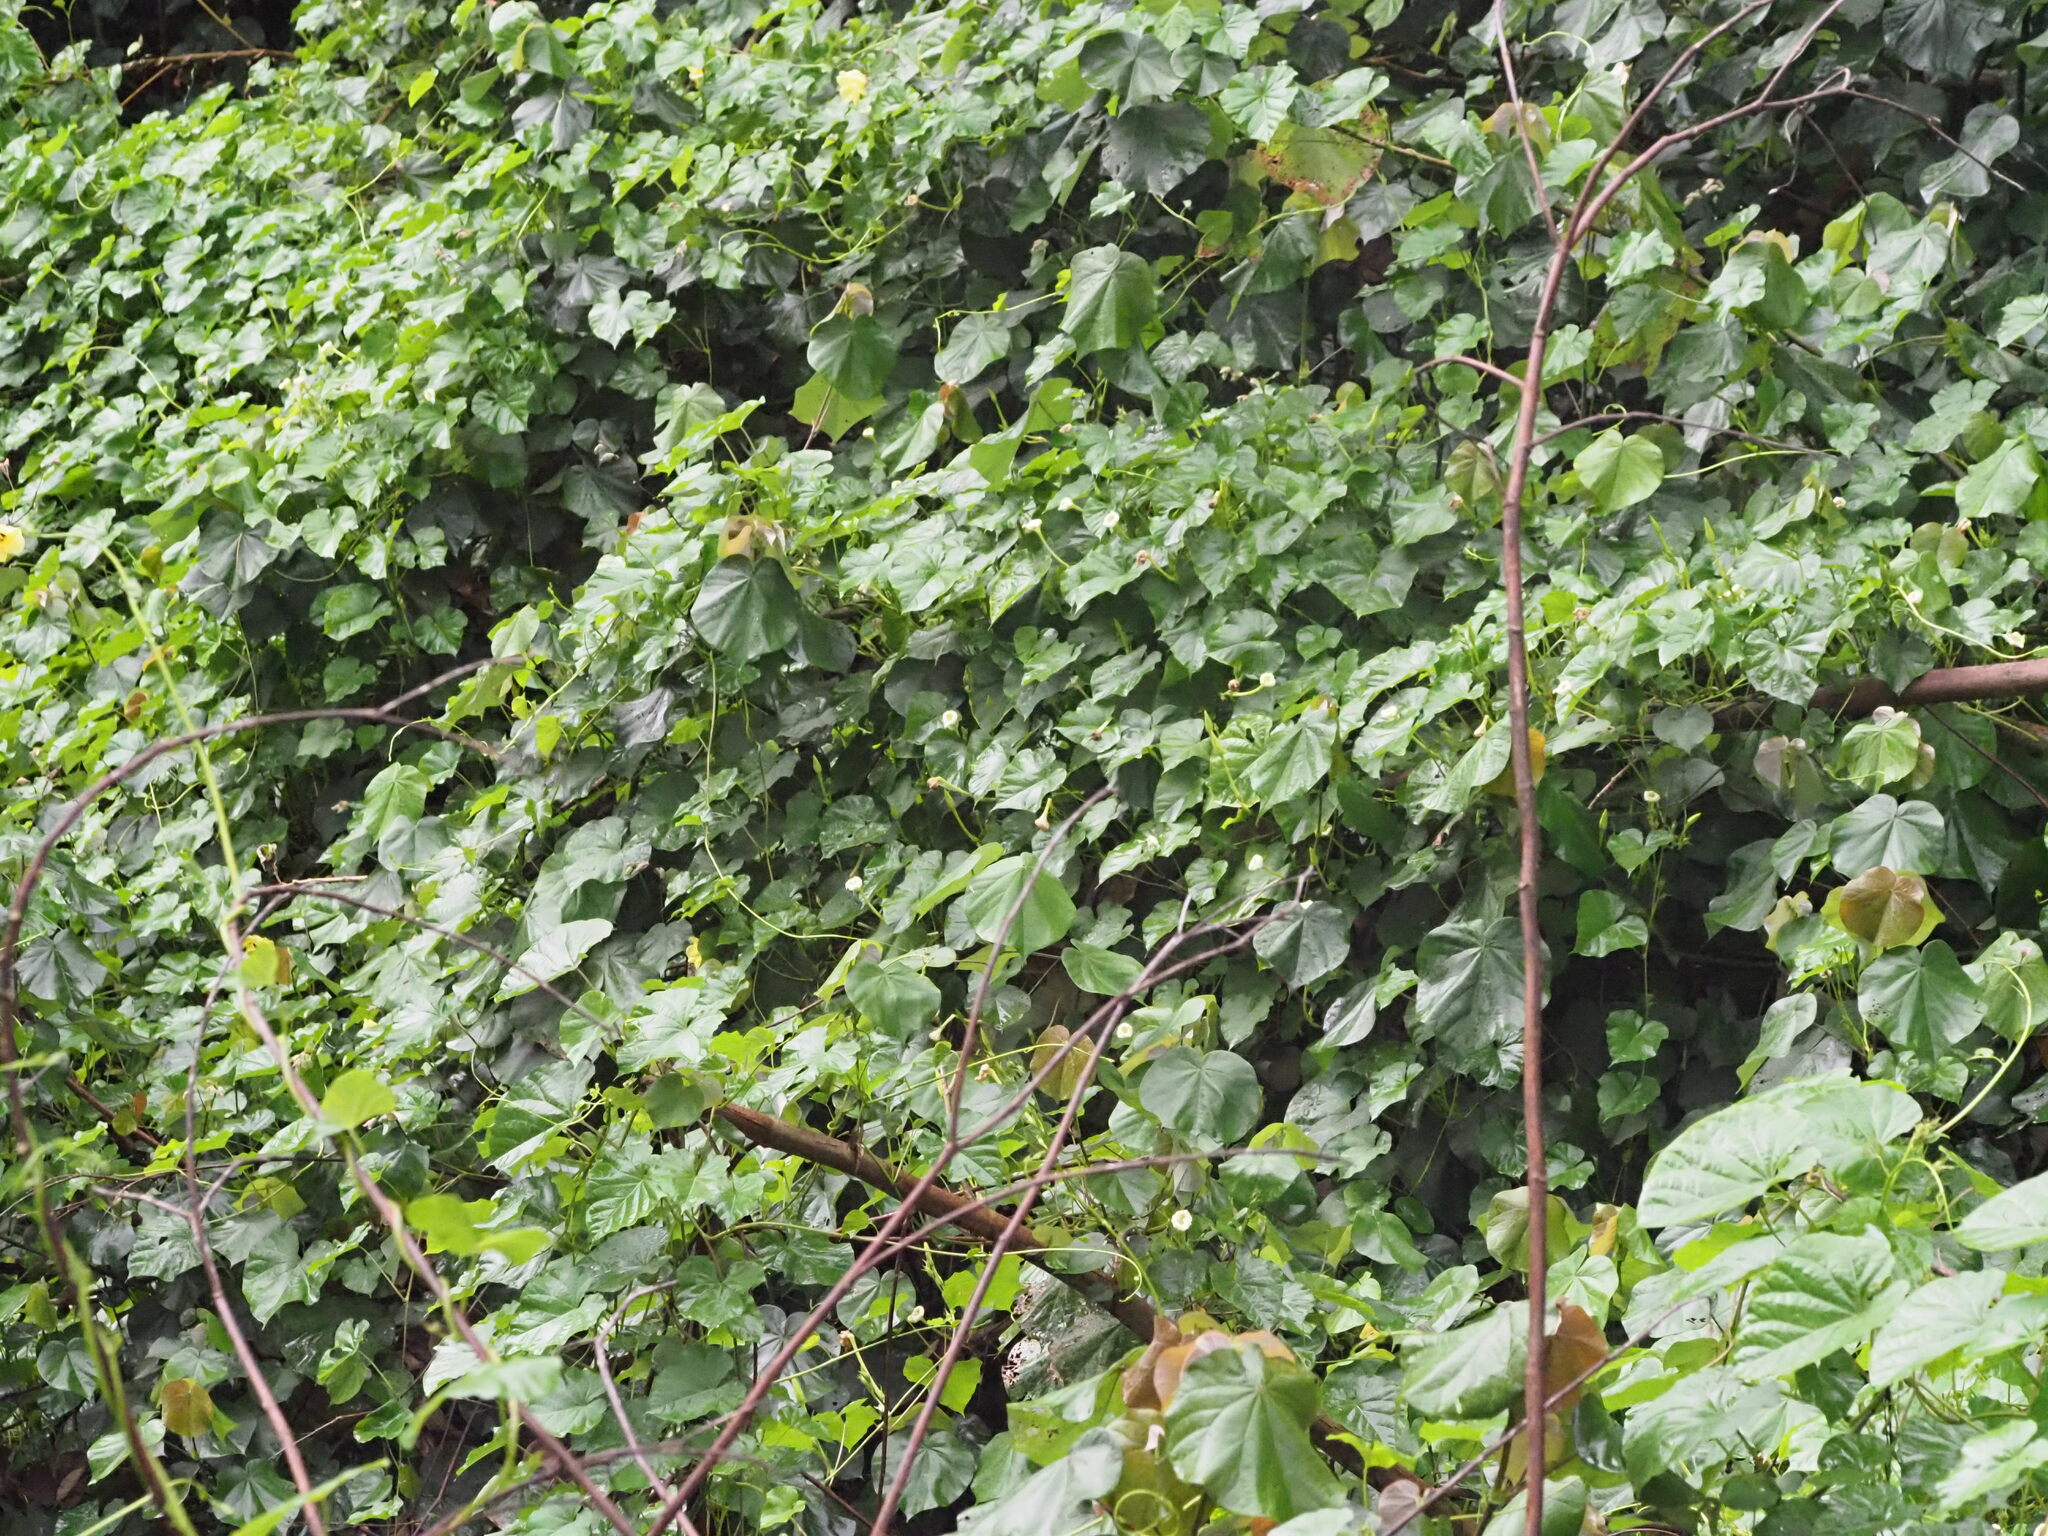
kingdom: Plantae
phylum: Tracheophyta
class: Magnoliopsida
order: Solanales
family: Convolvulaceae
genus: Ipomoea
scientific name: Ipomoea alba
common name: Moonflower
